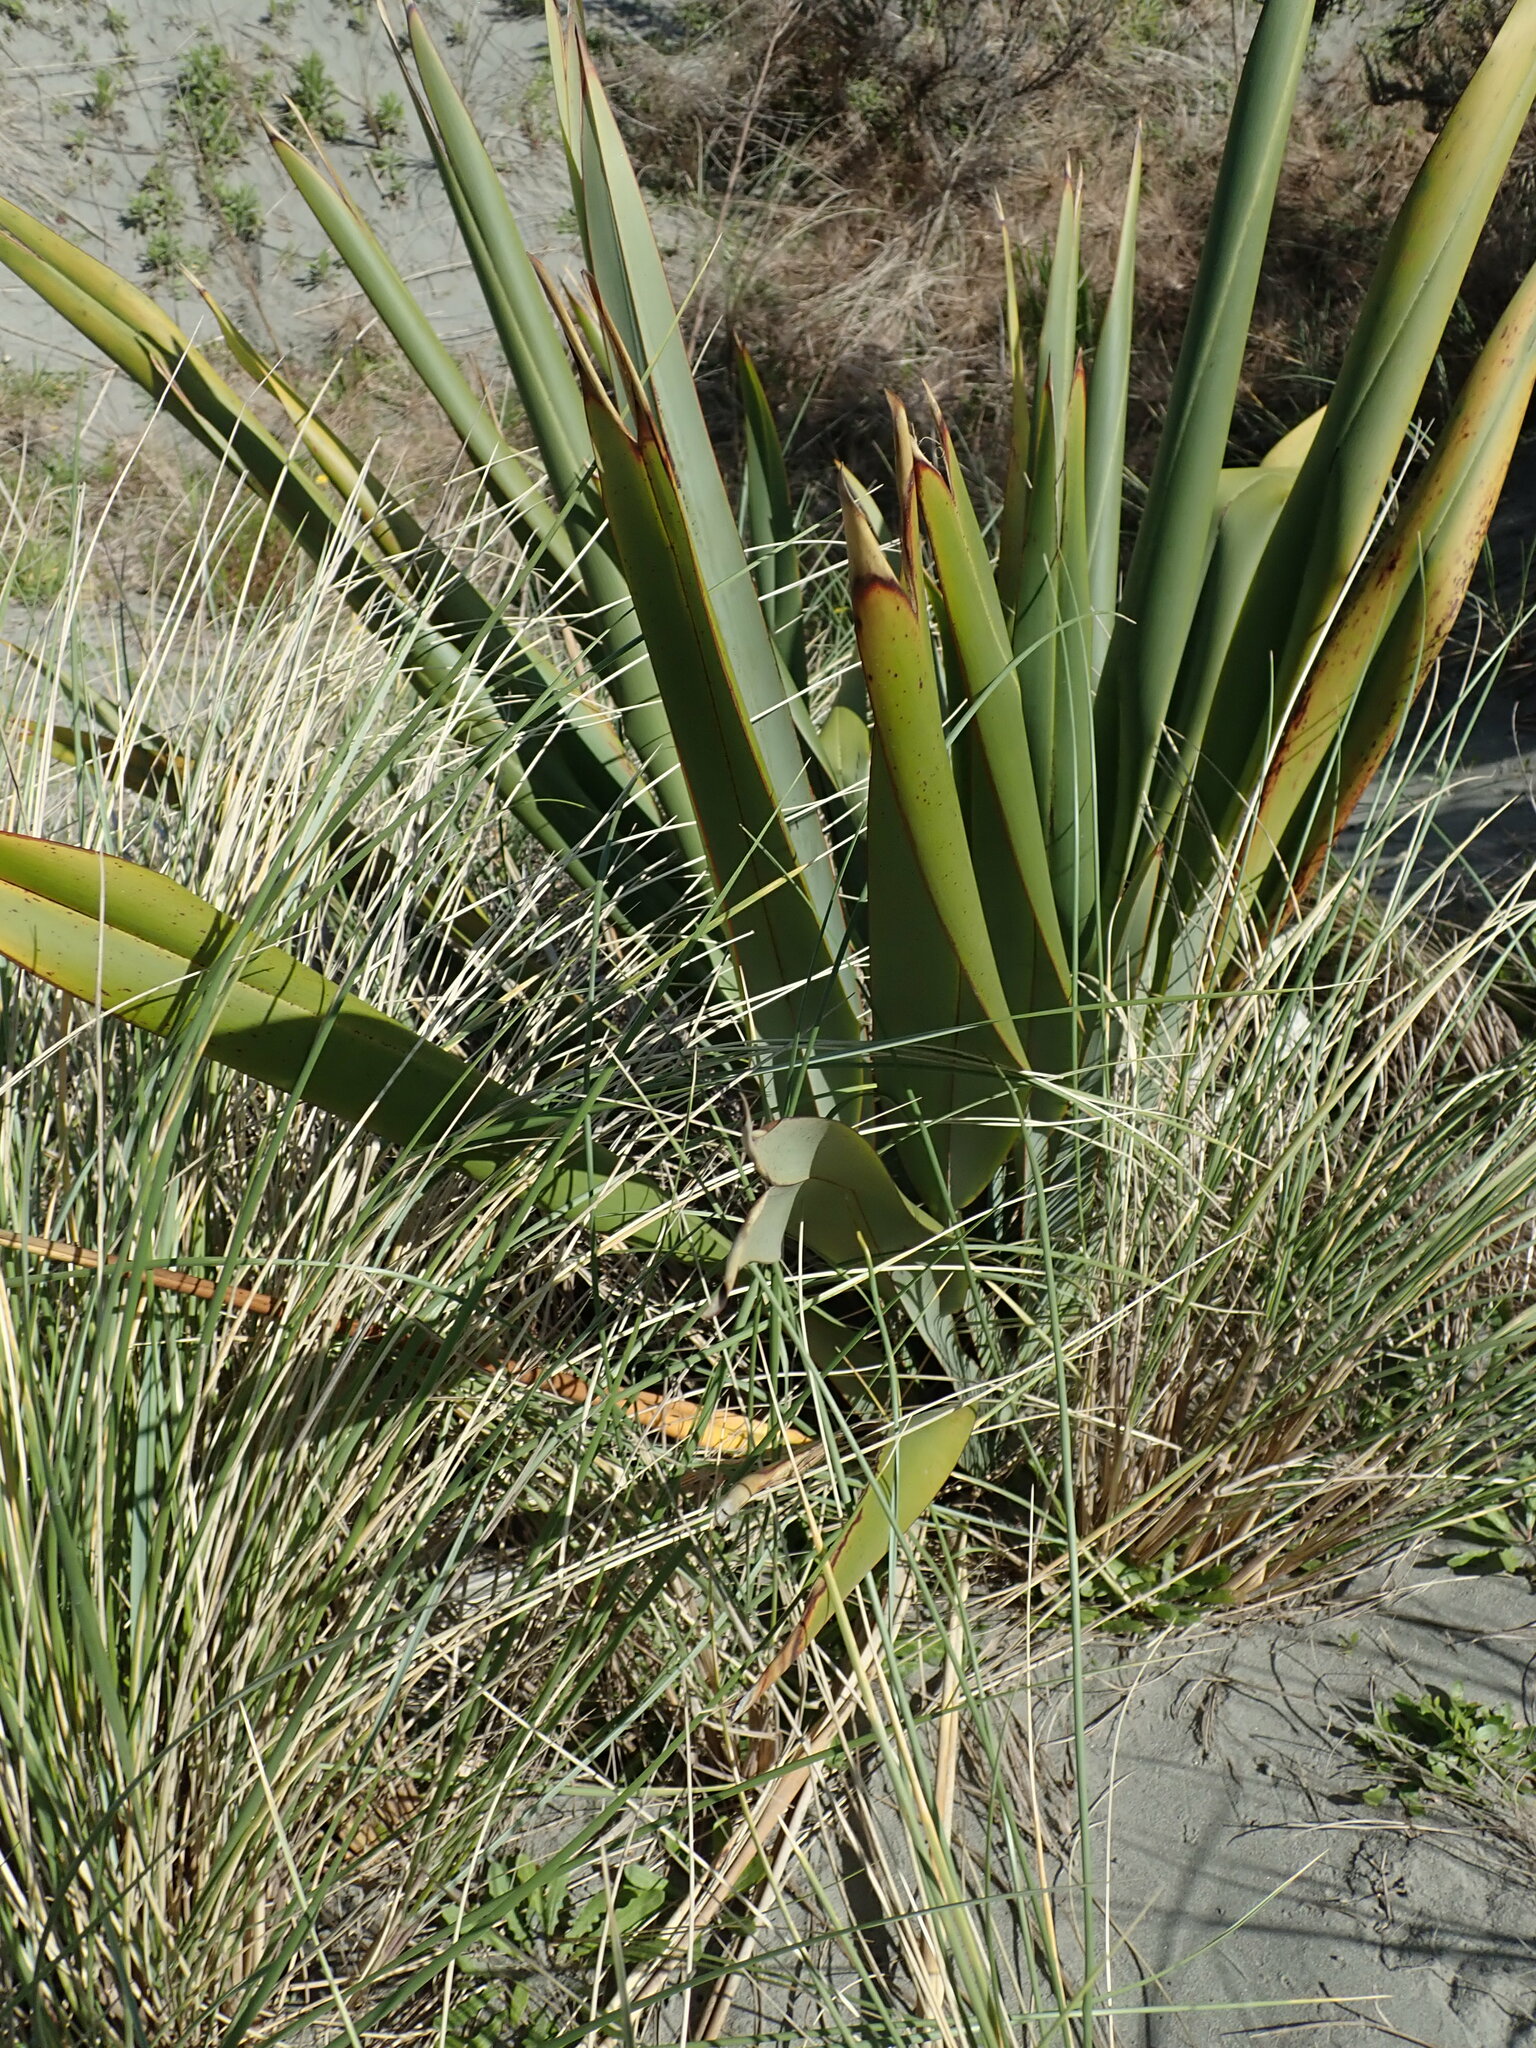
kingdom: Plantae
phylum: Tracheophyta
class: Liliopsida
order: Asparagales
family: Asphodelaceae
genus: Phormium
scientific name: Phormium tenax
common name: New zealand flax
